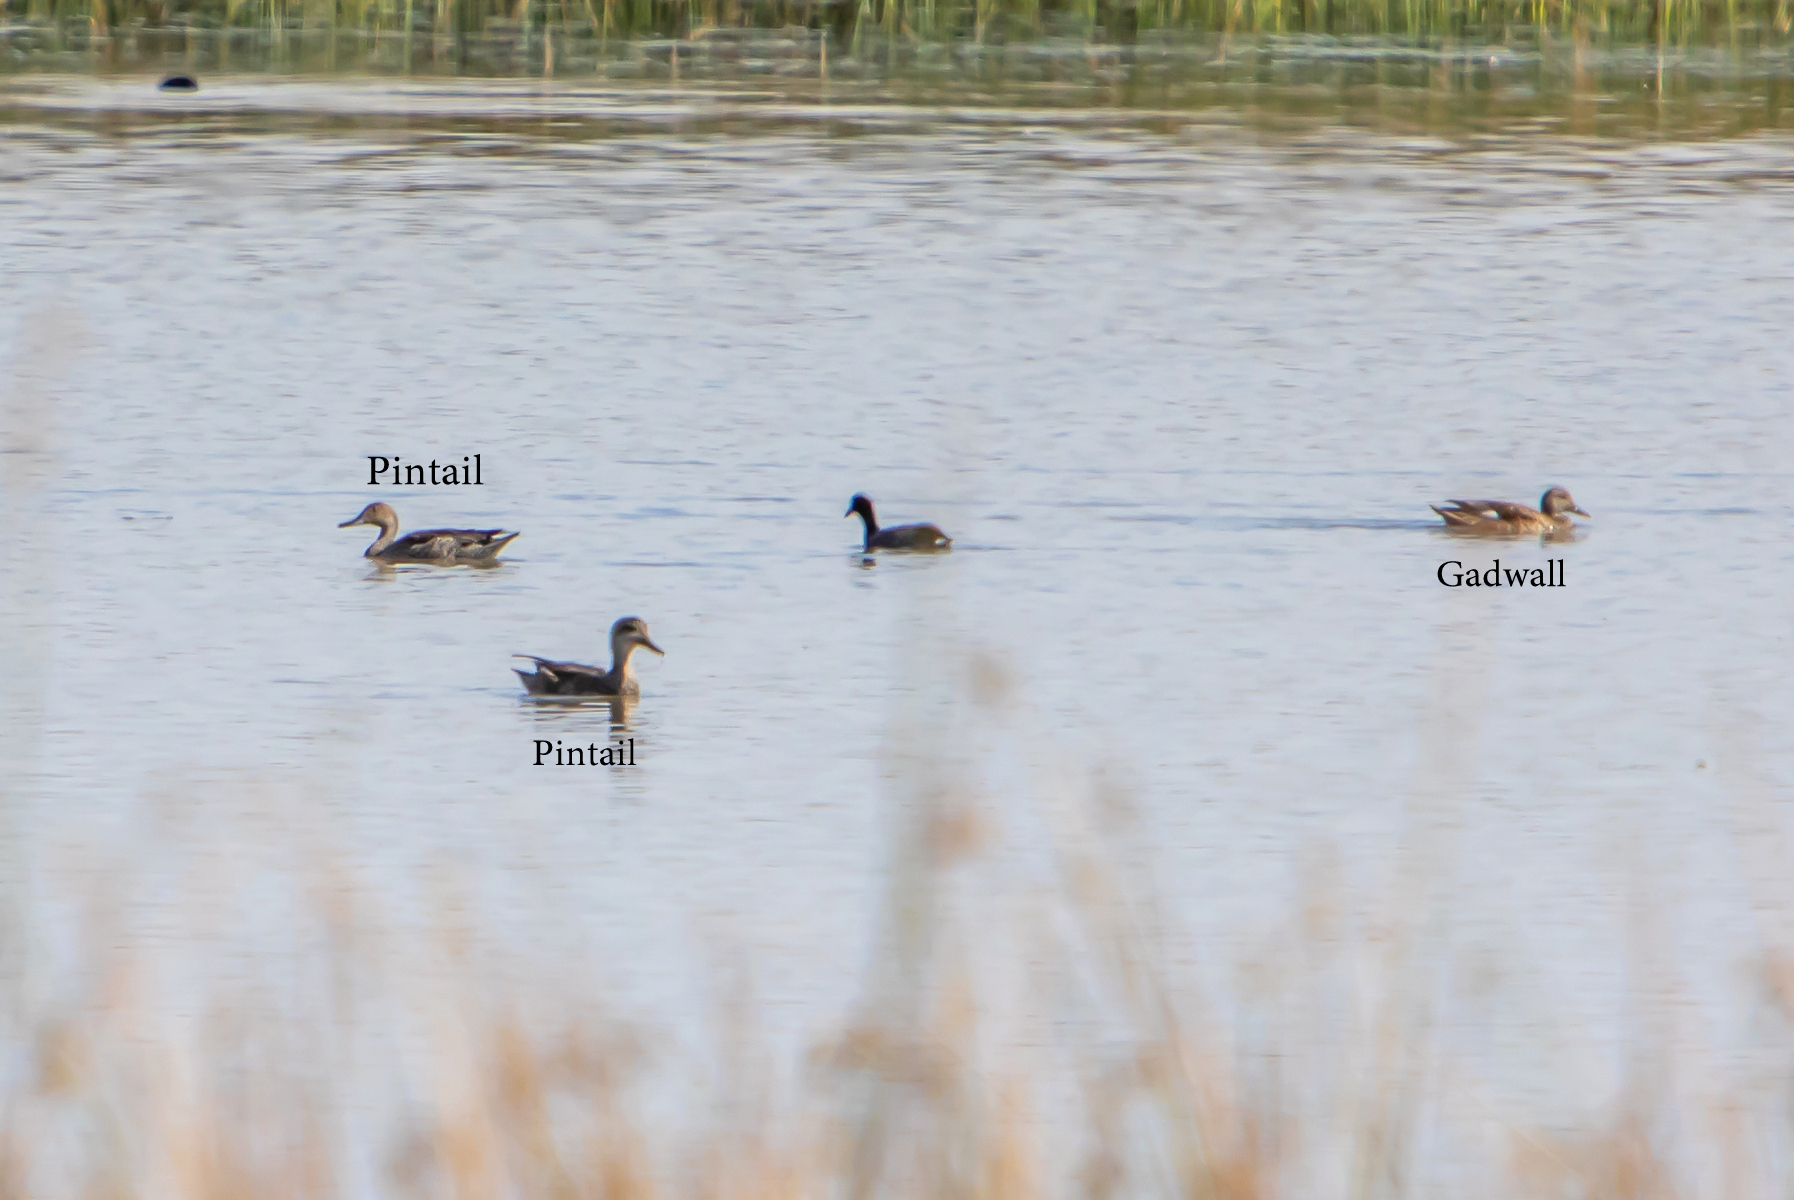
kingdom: Animalia
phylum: Chordata
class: Aves
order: Anseriformes
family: Anatidae
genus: Anas
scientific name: Anas acuta
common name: Northern pintail
